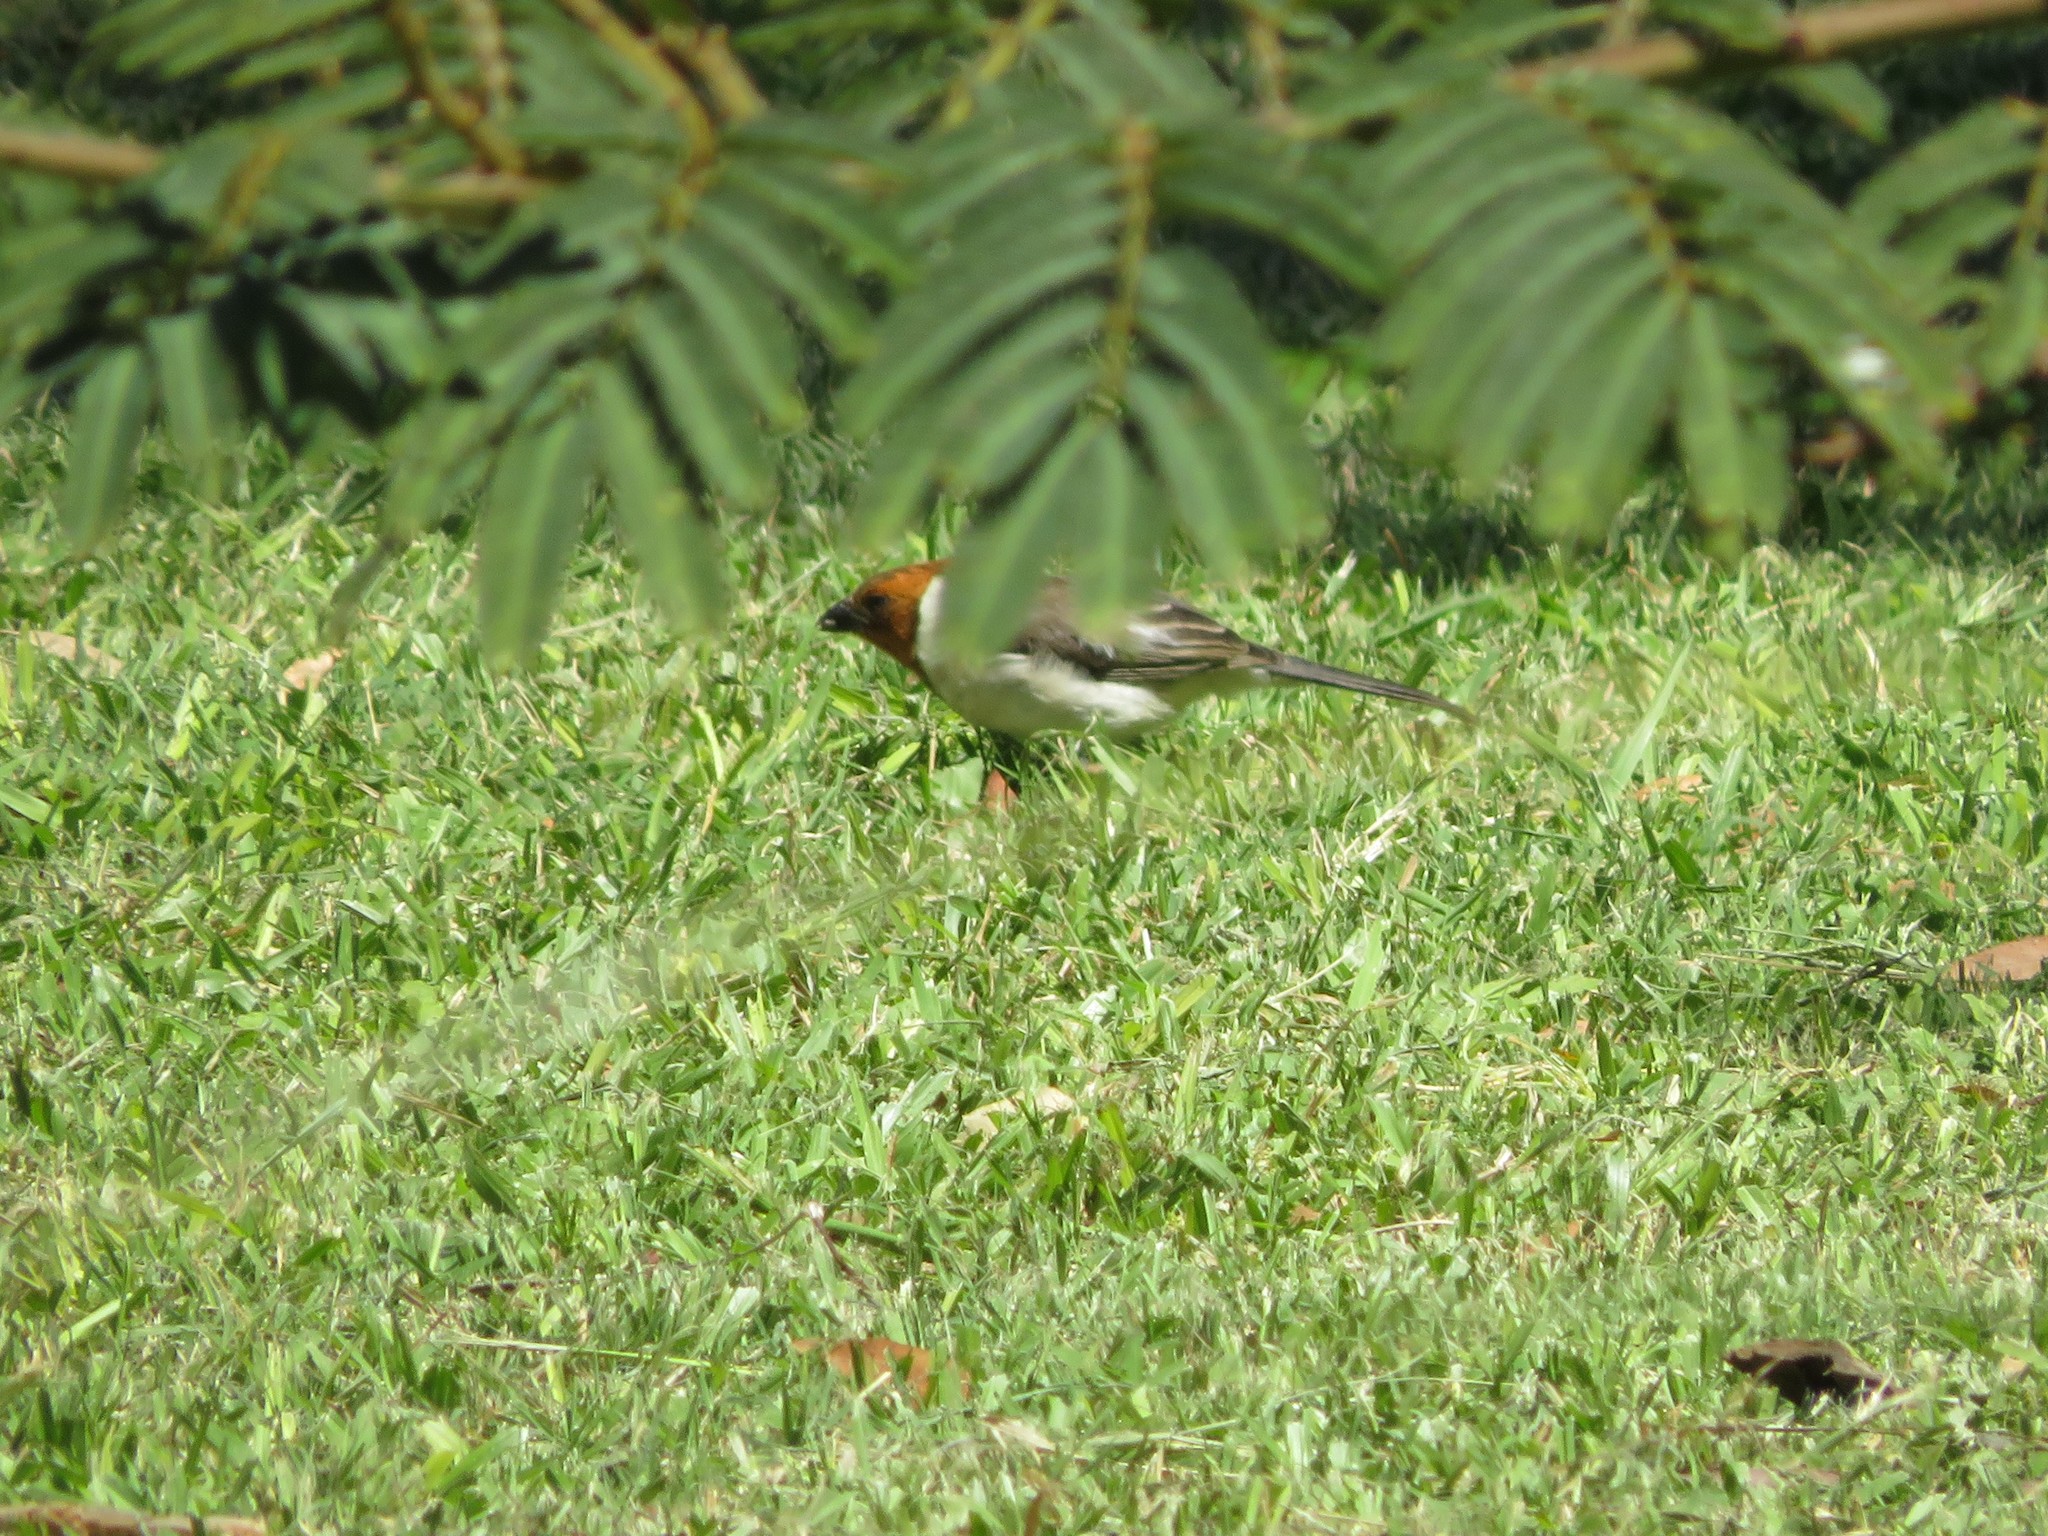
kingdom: Animalia
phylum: Chordata
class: Aves
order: Passeriformes
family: Thraupidae
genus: Paroaria
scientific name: Paroaria coronata
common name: Red-crested cardinal
